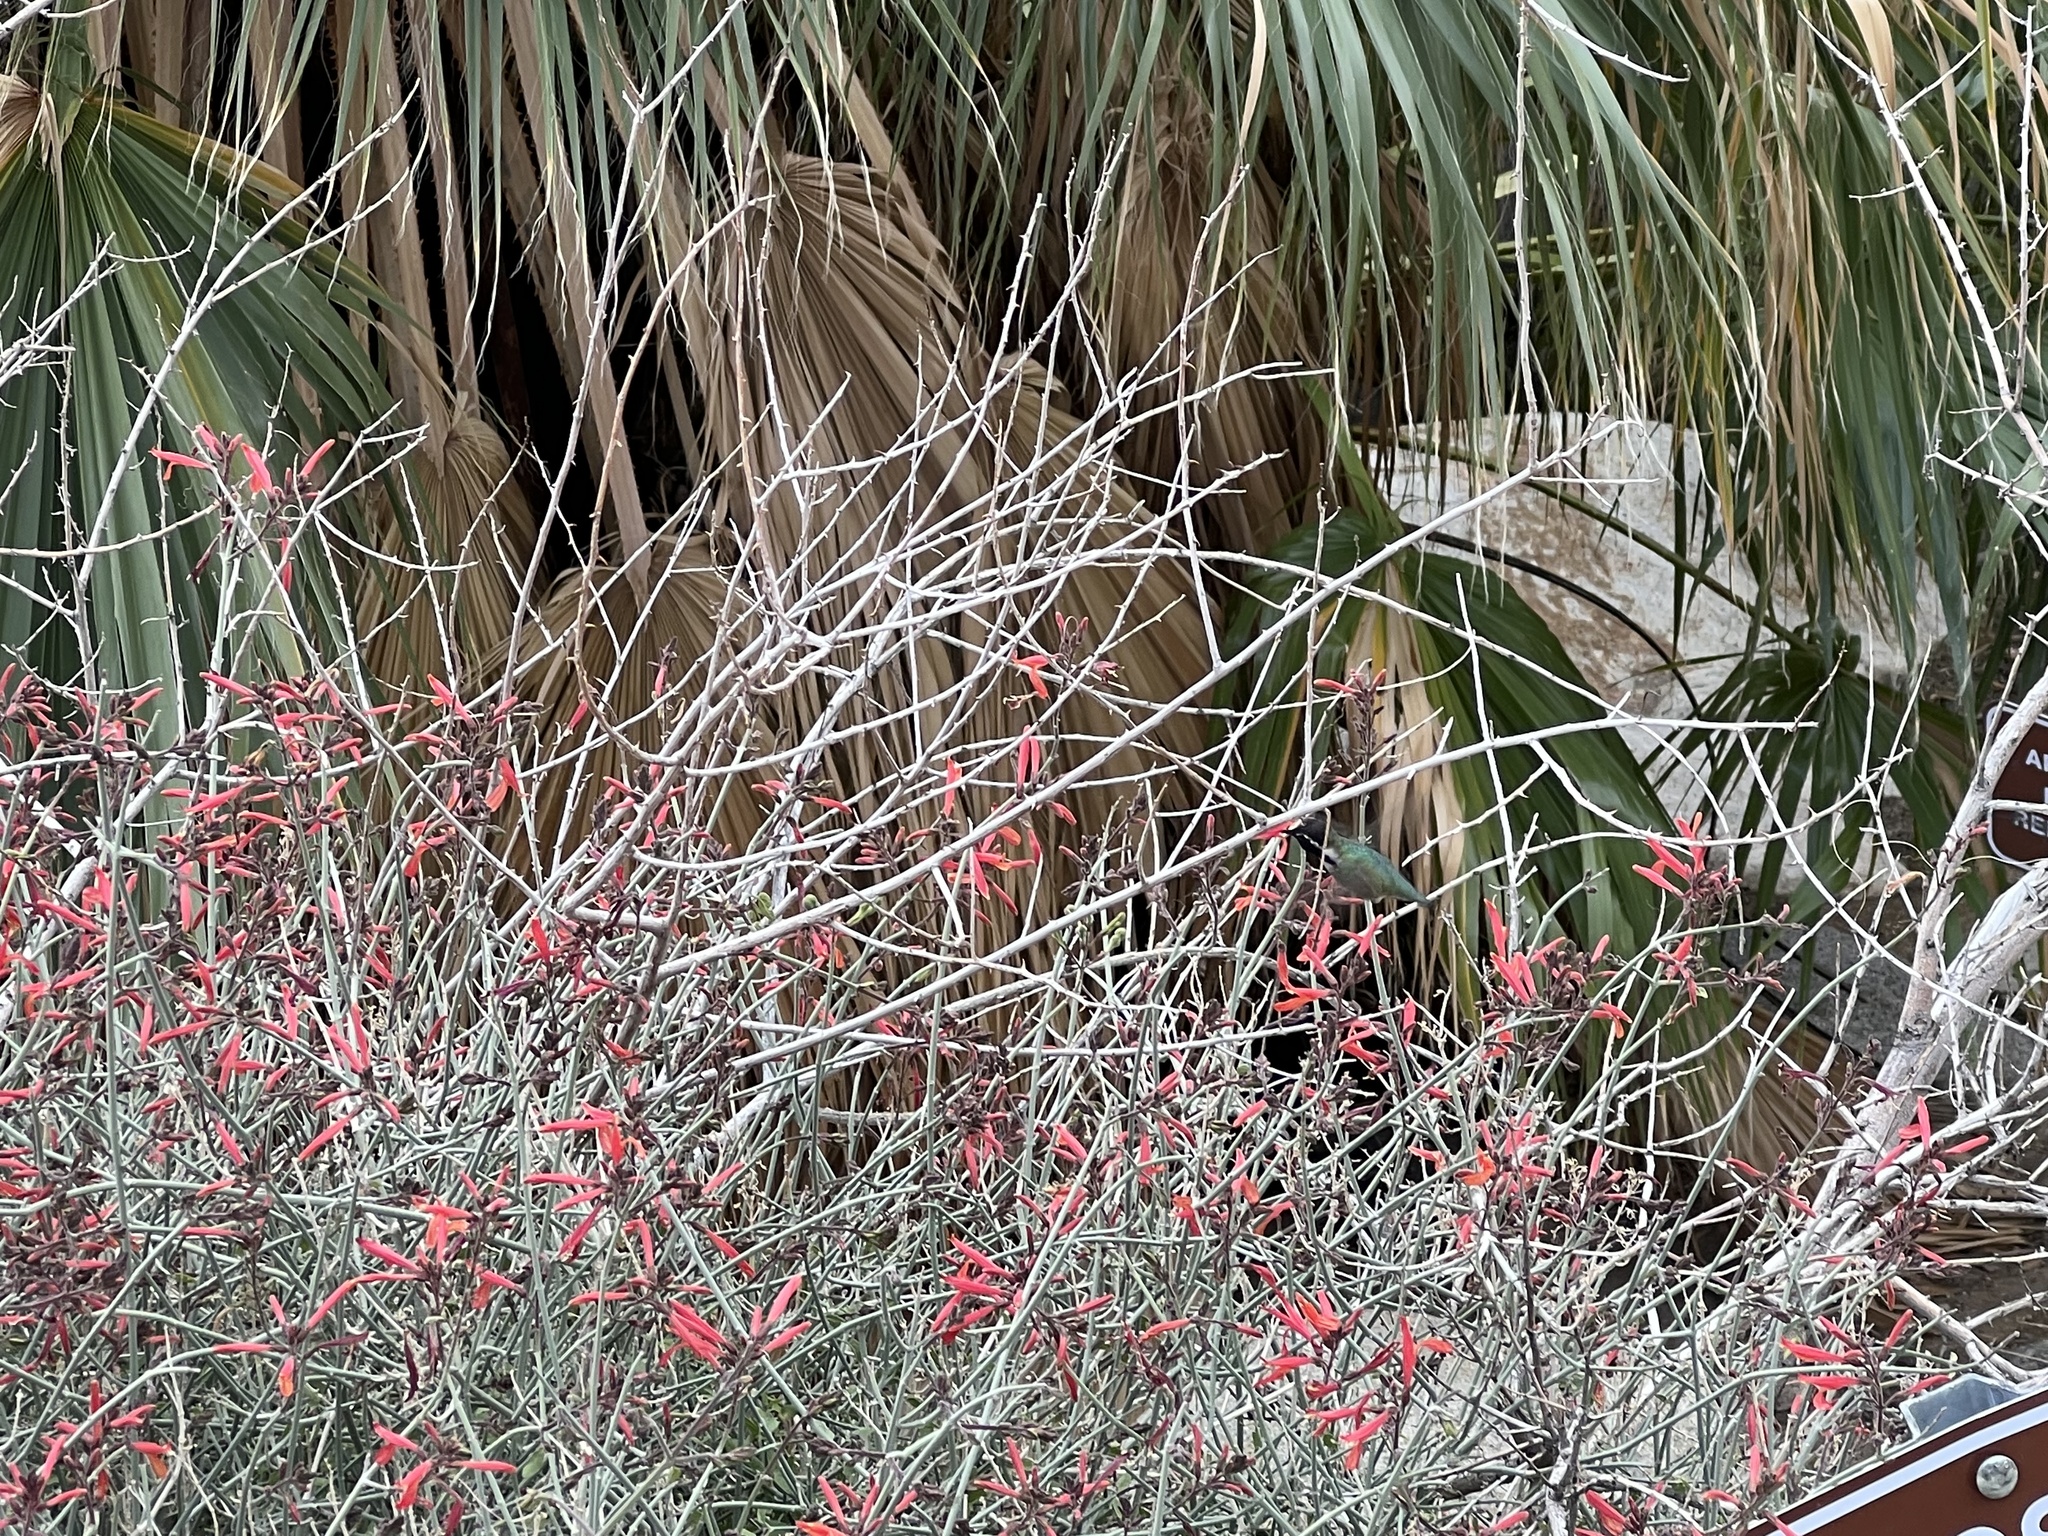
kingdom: Plantae
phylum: Tracheophyta
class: Magnoliopsida
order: Lamiales
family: Acanthaceae
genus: Justicia
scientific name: Justicia californica
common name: Chuparosa-honeysuckle
